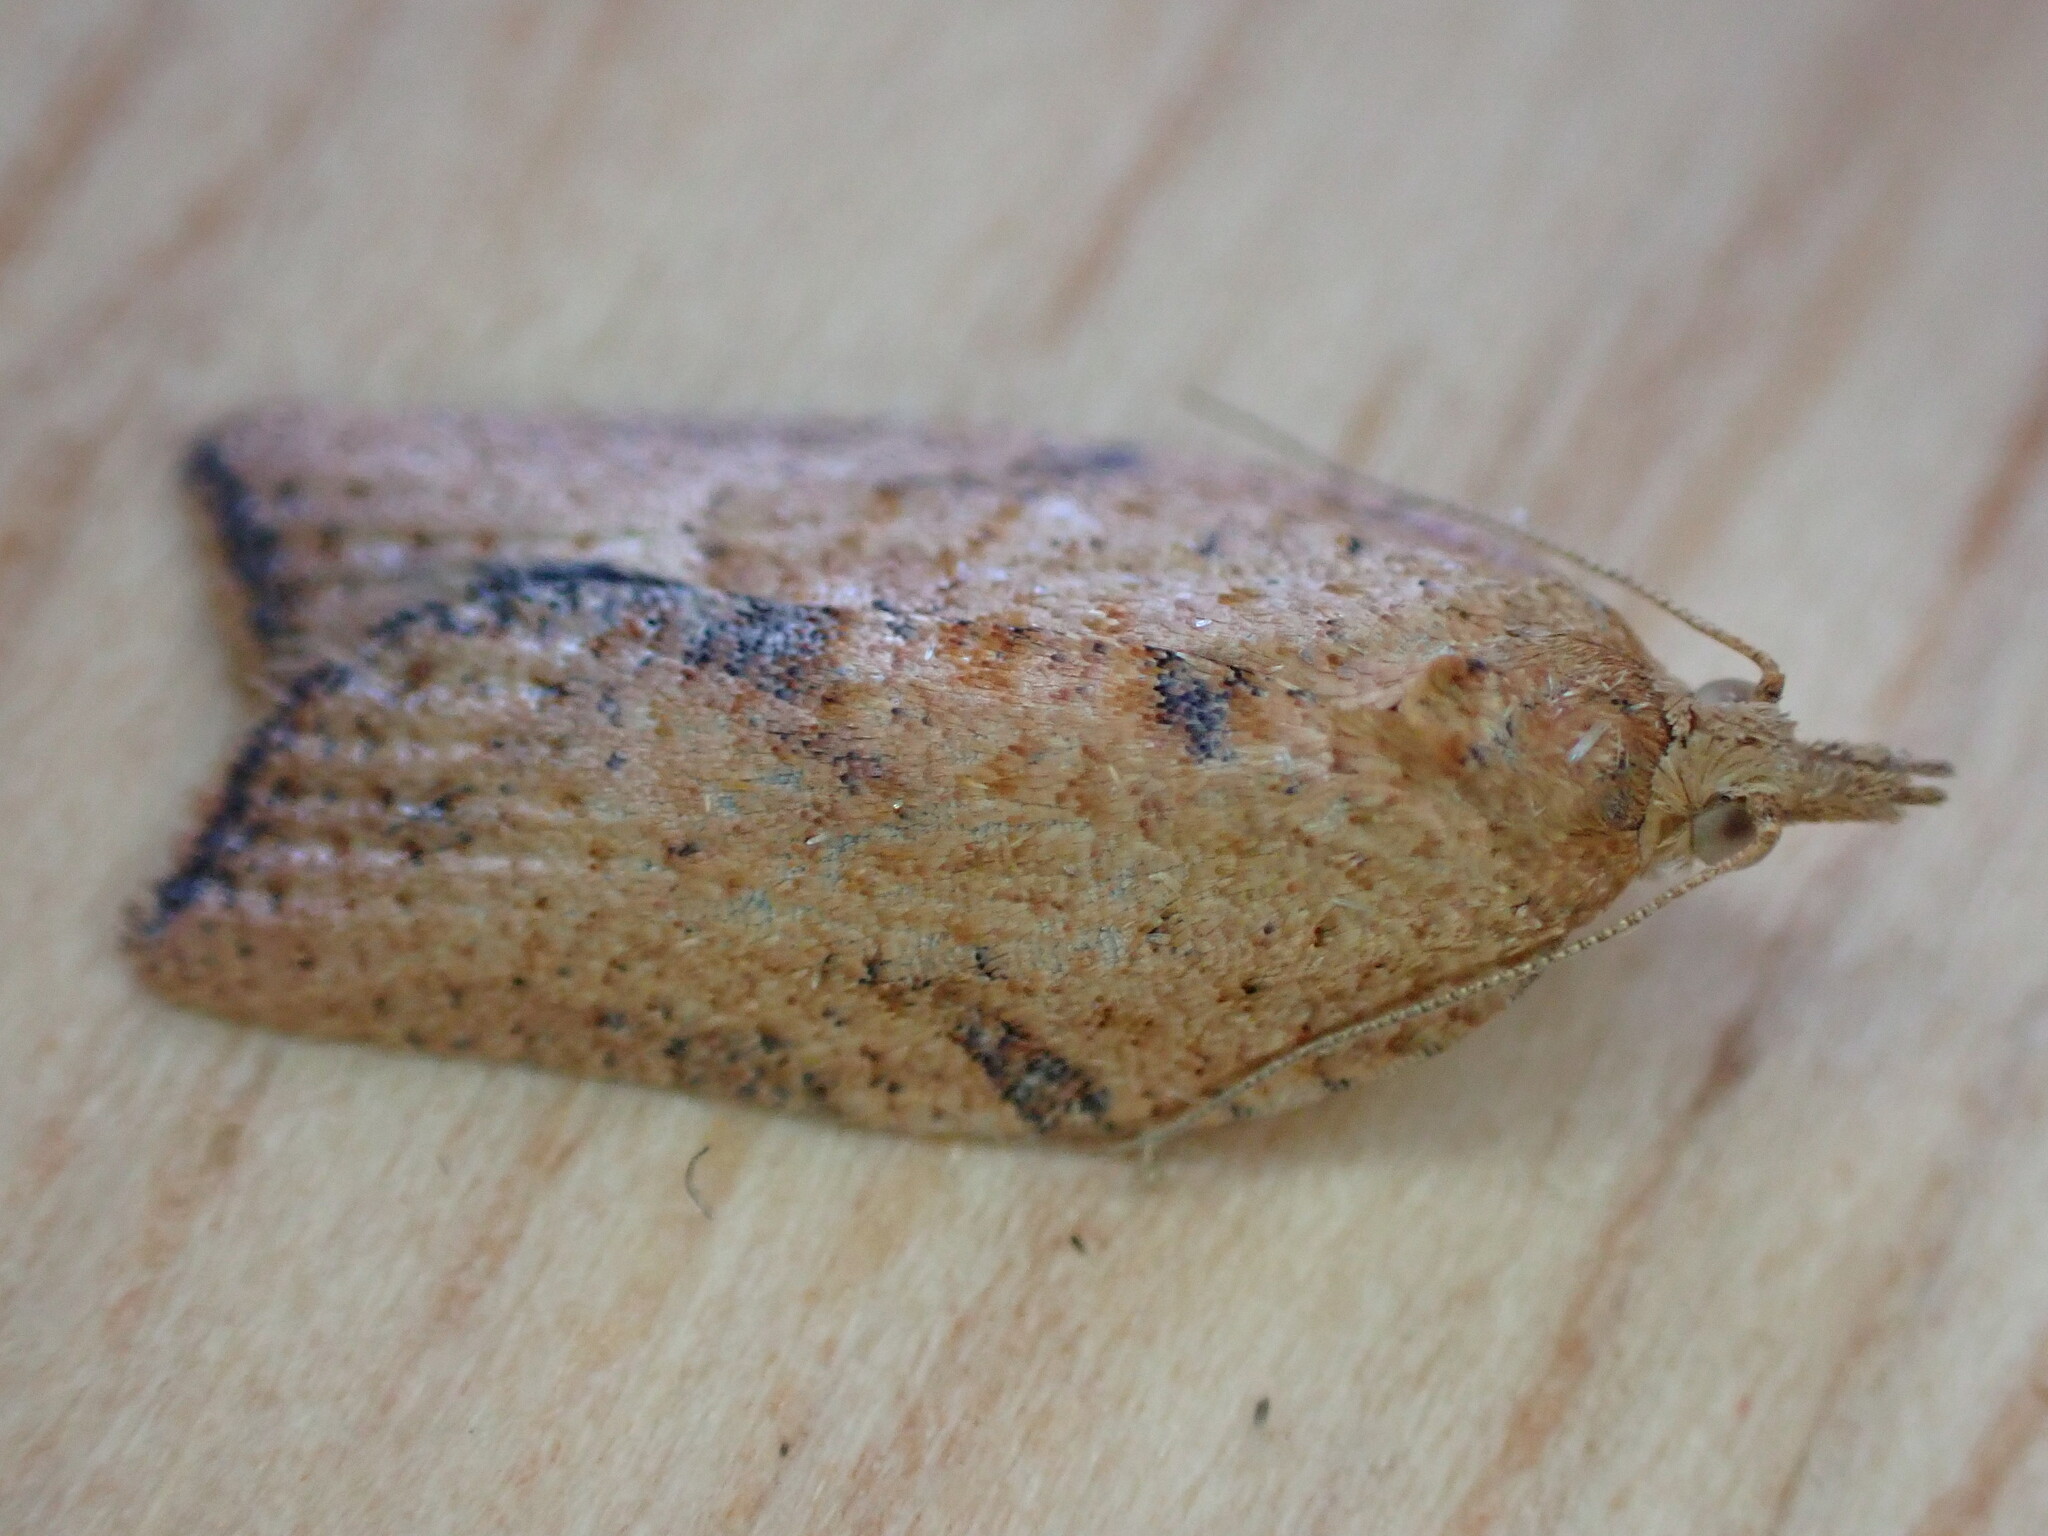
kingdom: Animalia
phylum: Arthropoda
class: Insecta
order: Lepidoptera
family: Tortricidae
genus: Epiphyas
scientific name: Epiphyas postvittana
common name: Light brown apple moth
